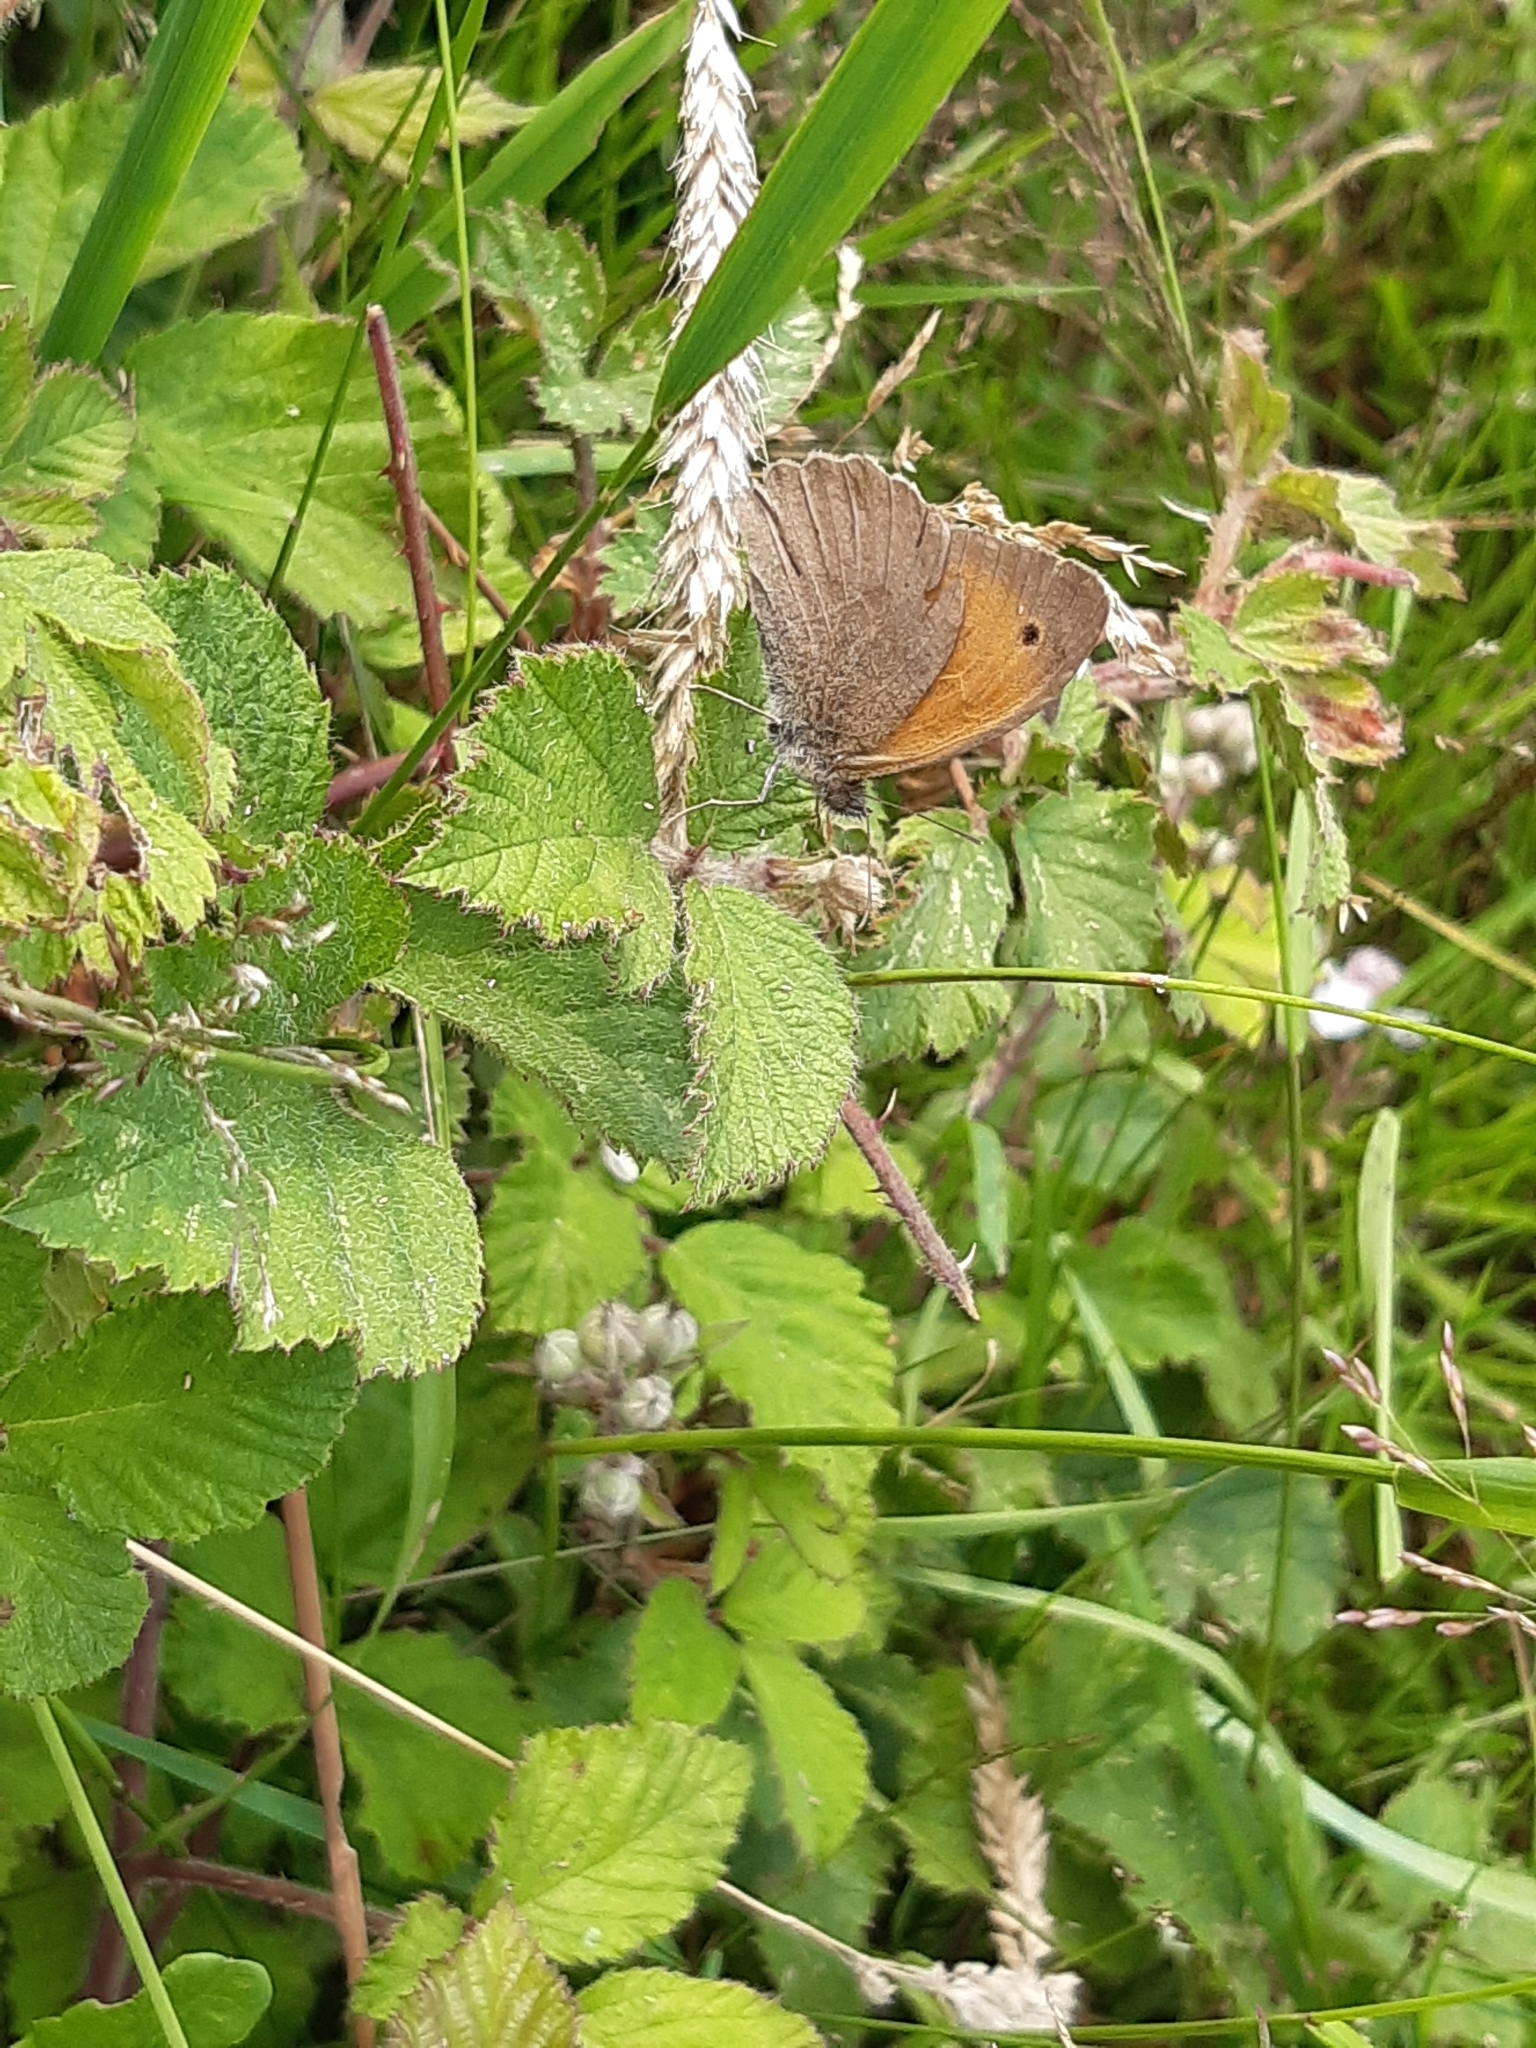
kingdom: Animalia
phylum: Arthropoda
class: Insecta
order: Lepidoptera
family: Nymphalidae
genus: Maniola
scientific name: Maniola jurtina
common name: Meadow brown
